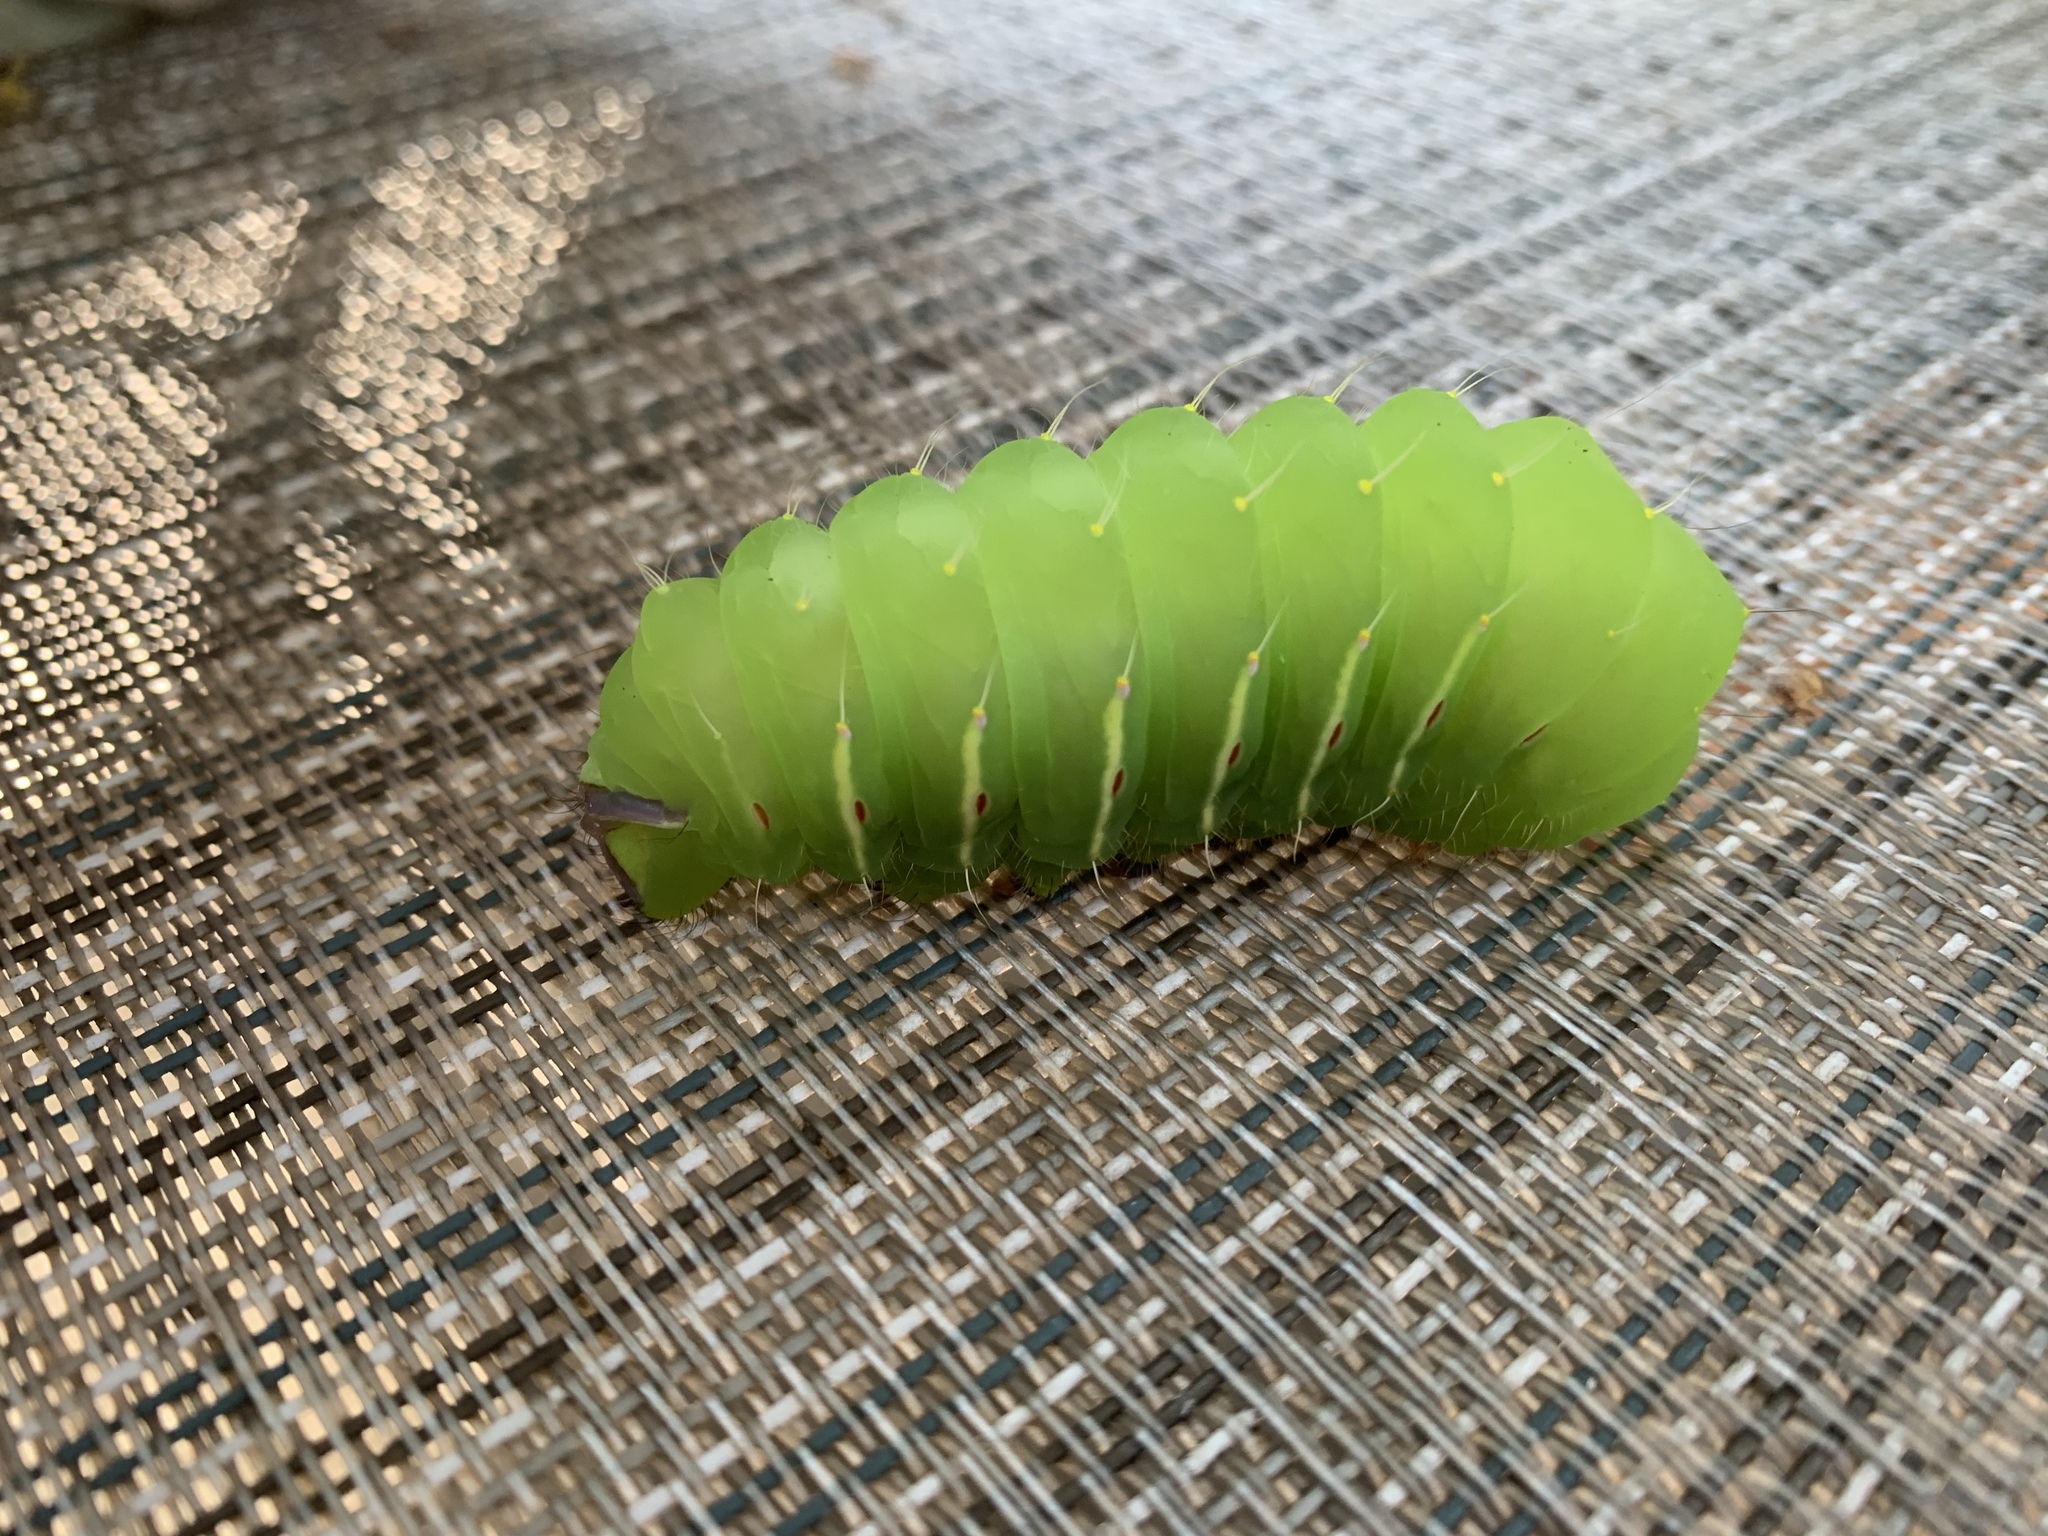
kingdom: Animalia
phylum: Arthropoda
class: Insecta
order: Lepidoptera
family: Saturniidae
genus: Antheraea
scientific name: Antheraea polyphemus
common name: Polyphemus moth
